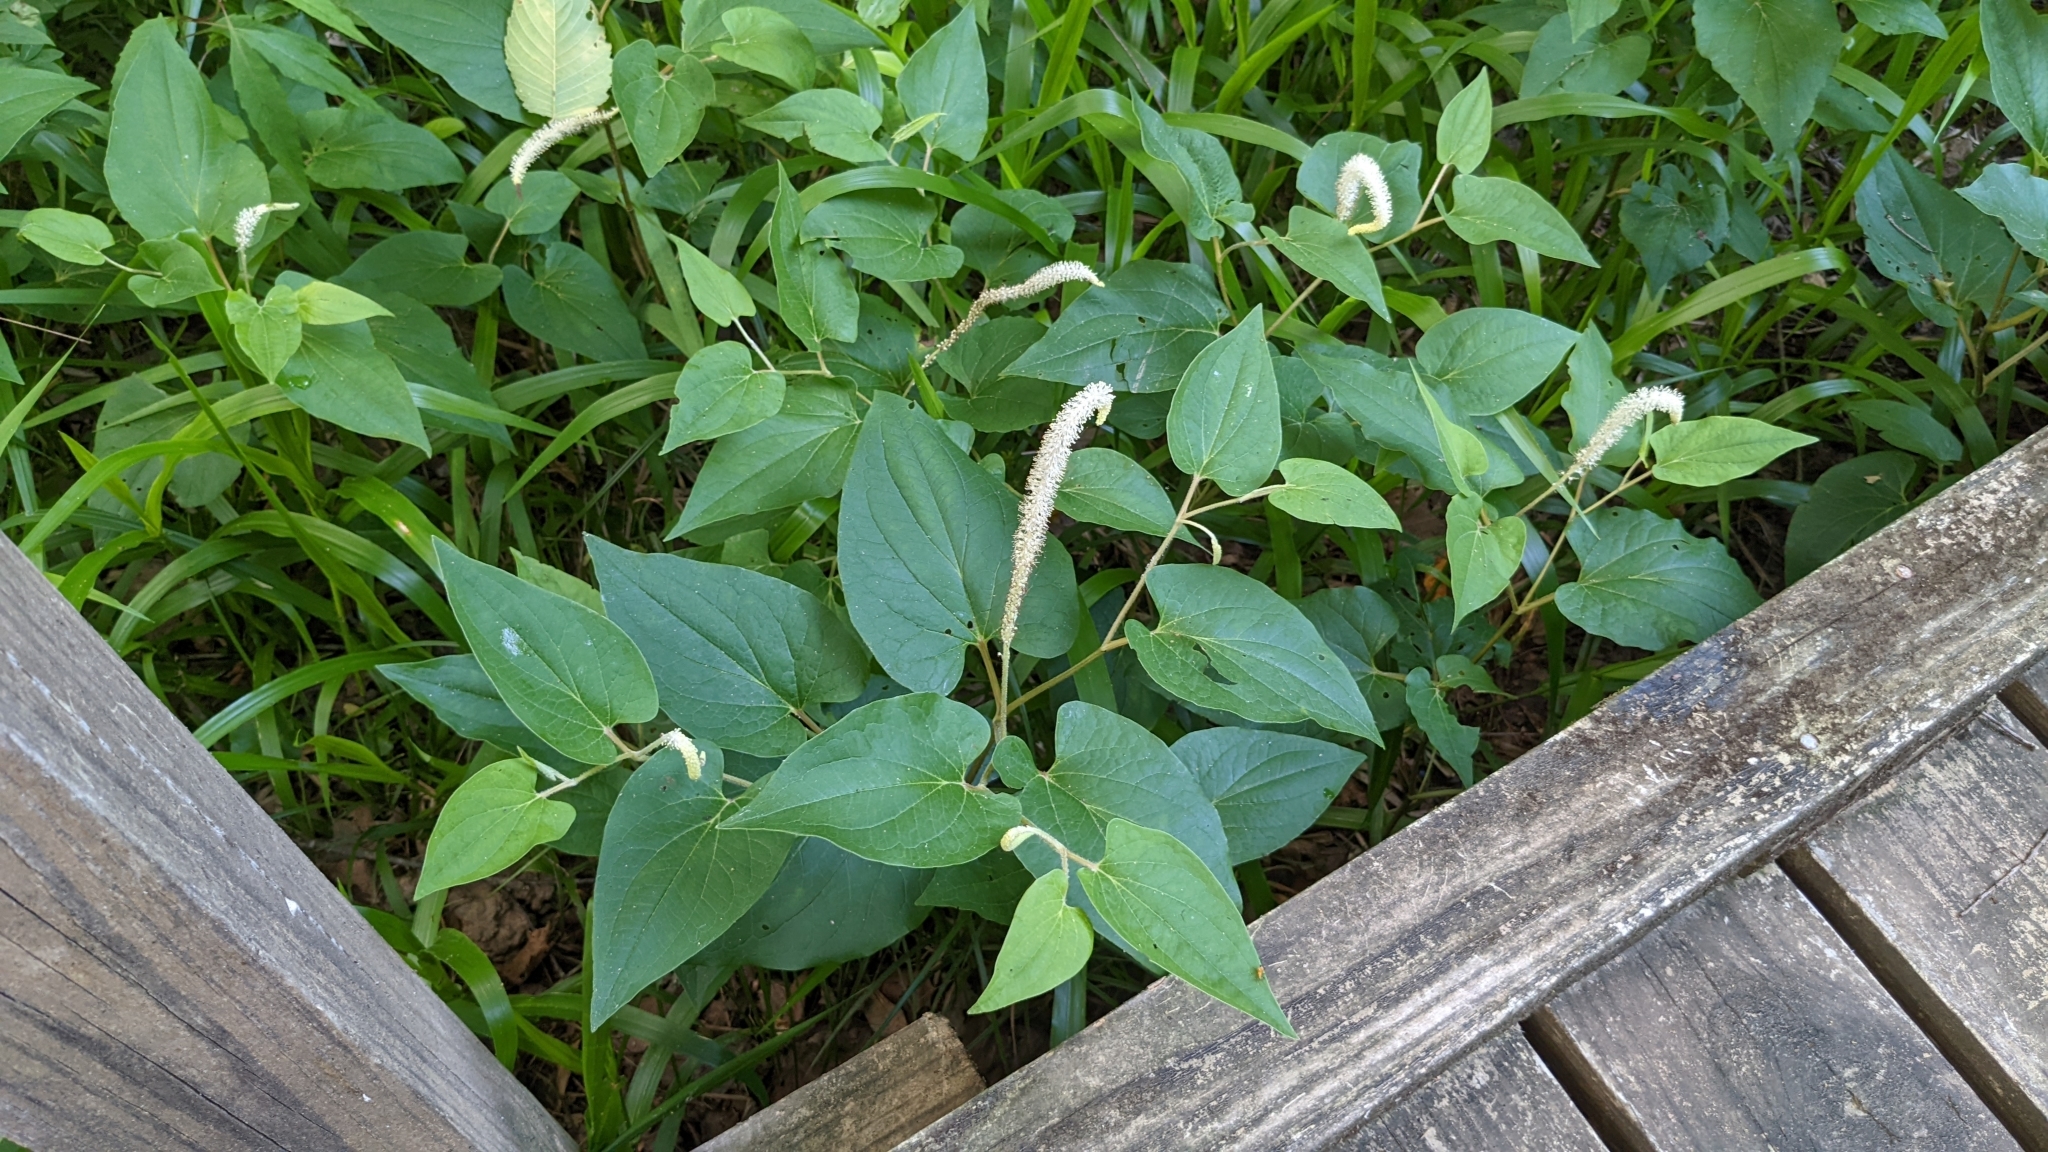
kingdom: Plantae
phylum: Tracheophyta
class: Magnoliopsida
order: Piperales
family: Saururaceae
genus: Saururus
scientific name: Saururus cernuus
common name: Lizard's-tail
